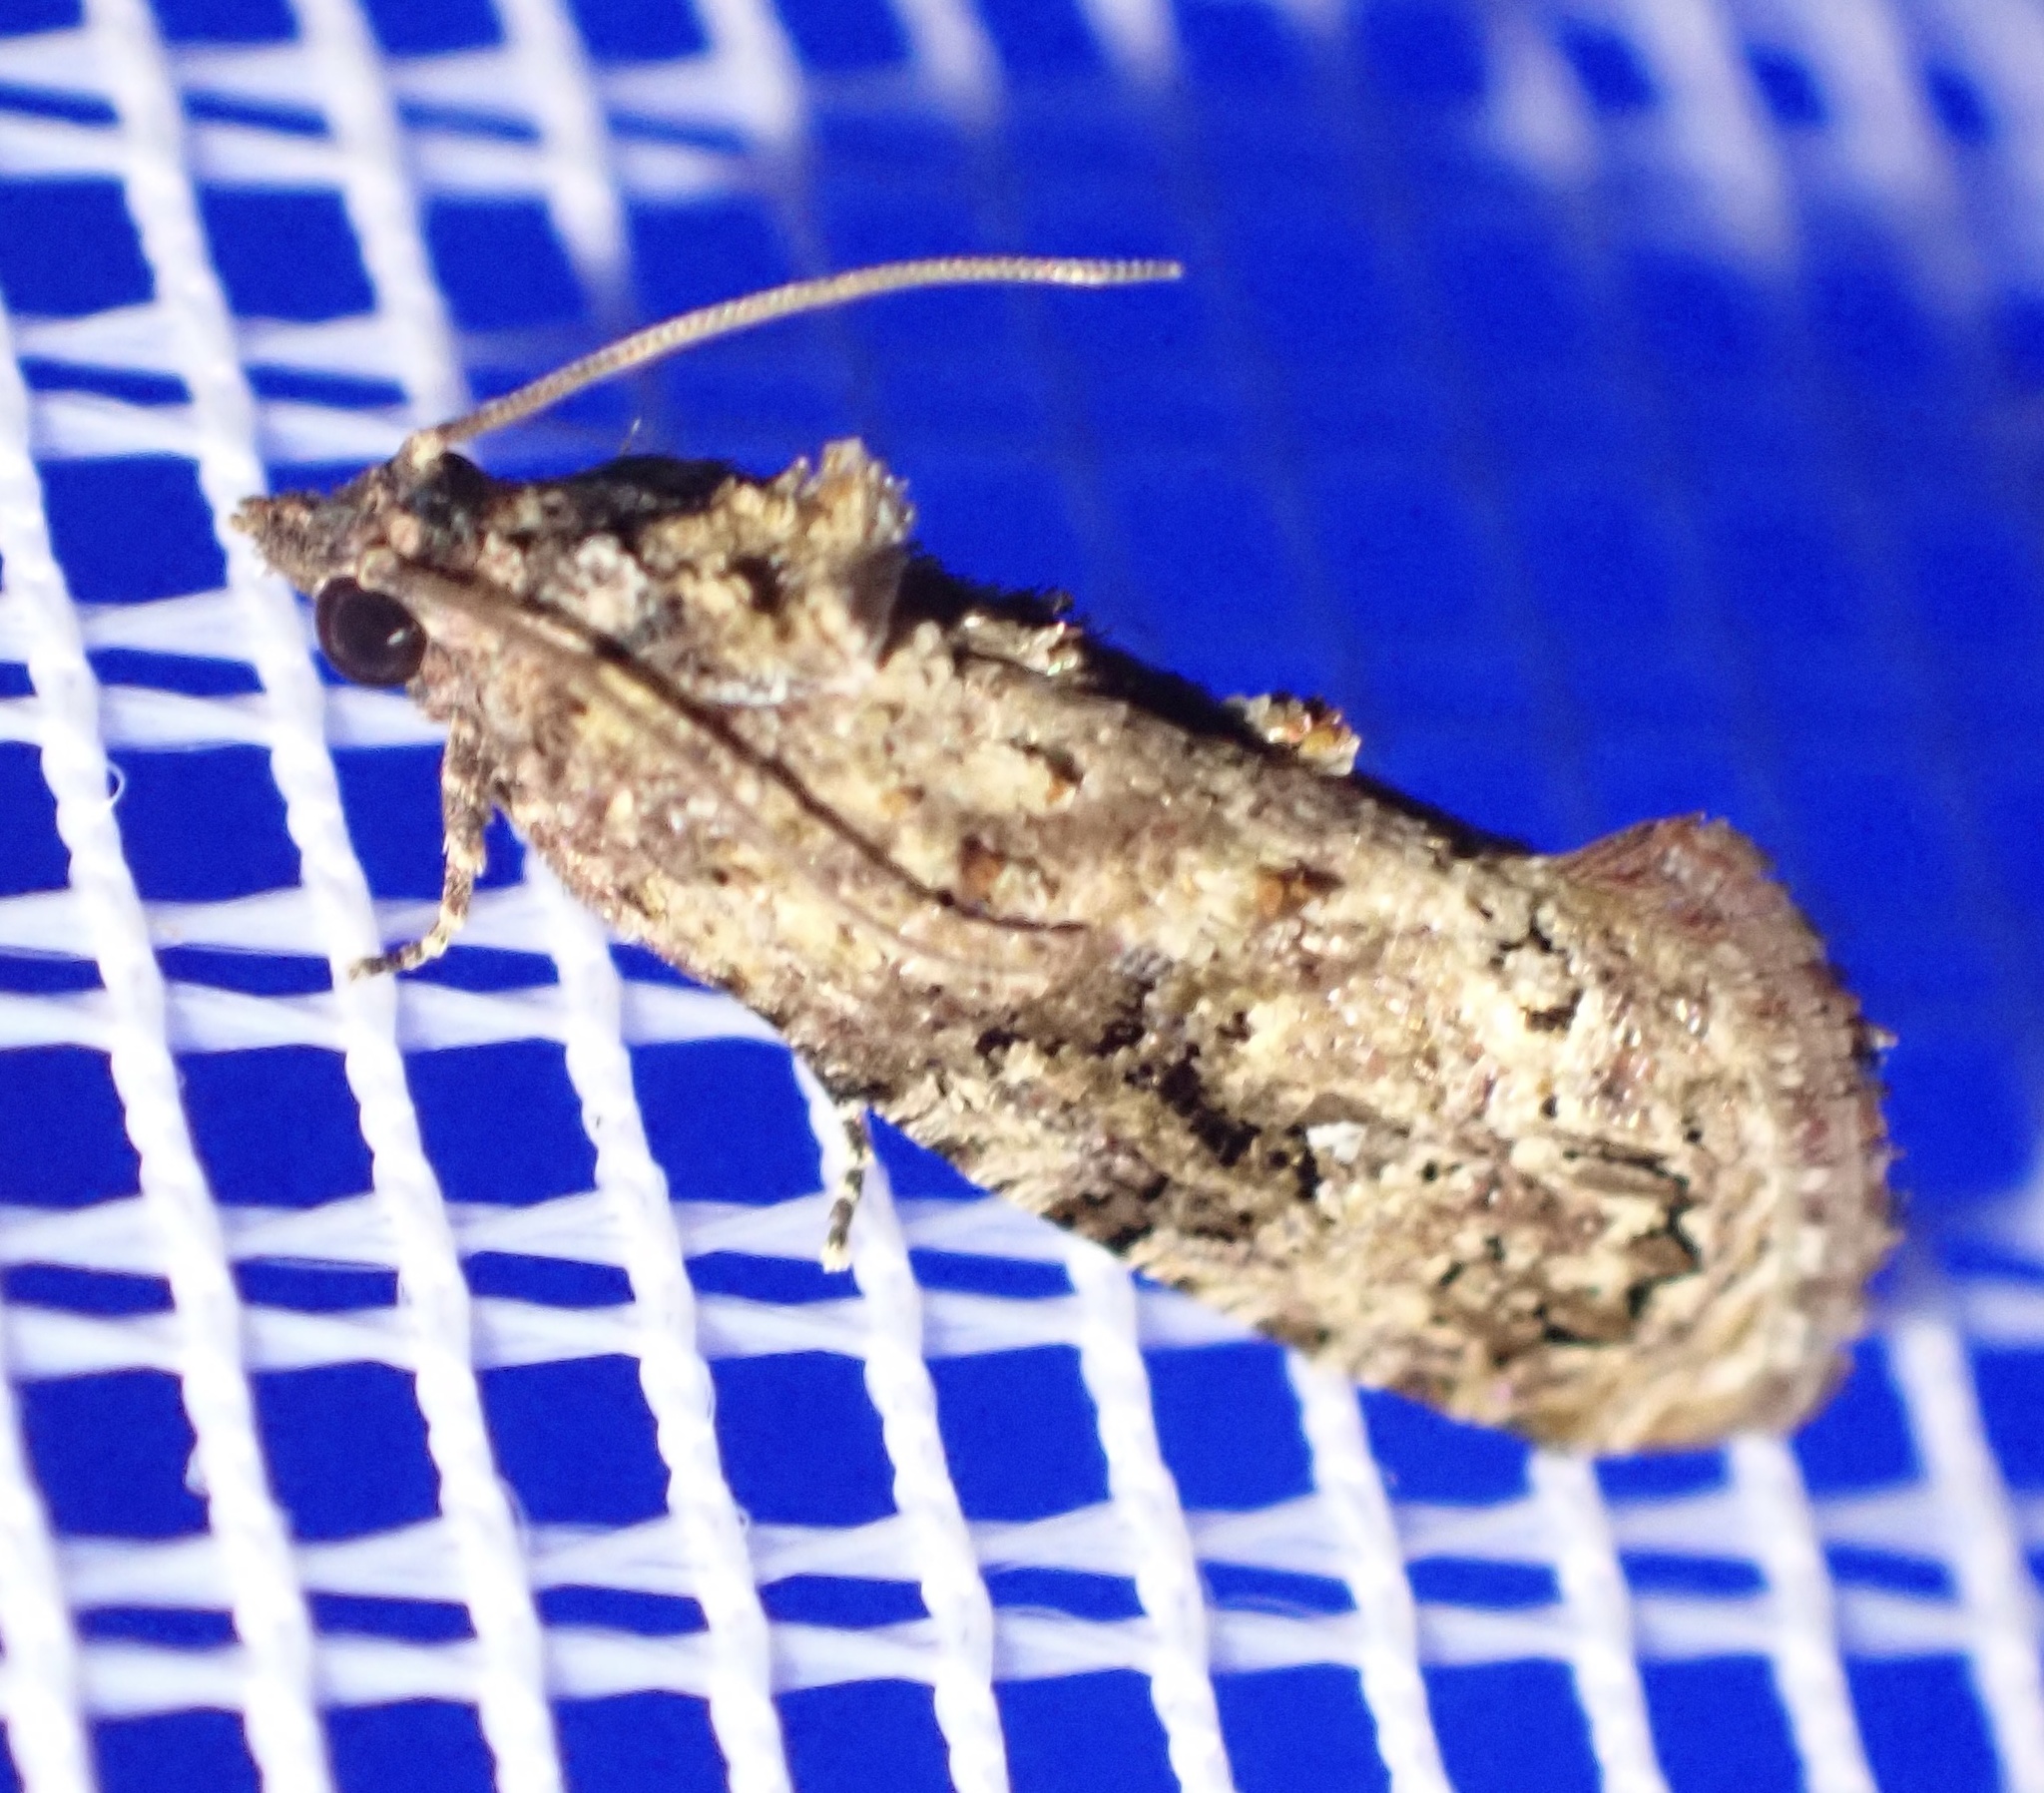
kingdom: Animalia
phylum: Arthropoda
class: Insecta
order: Lepidoptera
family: Tortricidae
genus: Thaumatotibia
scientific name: Thaumatotibia leucotreta
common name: False codling moth
